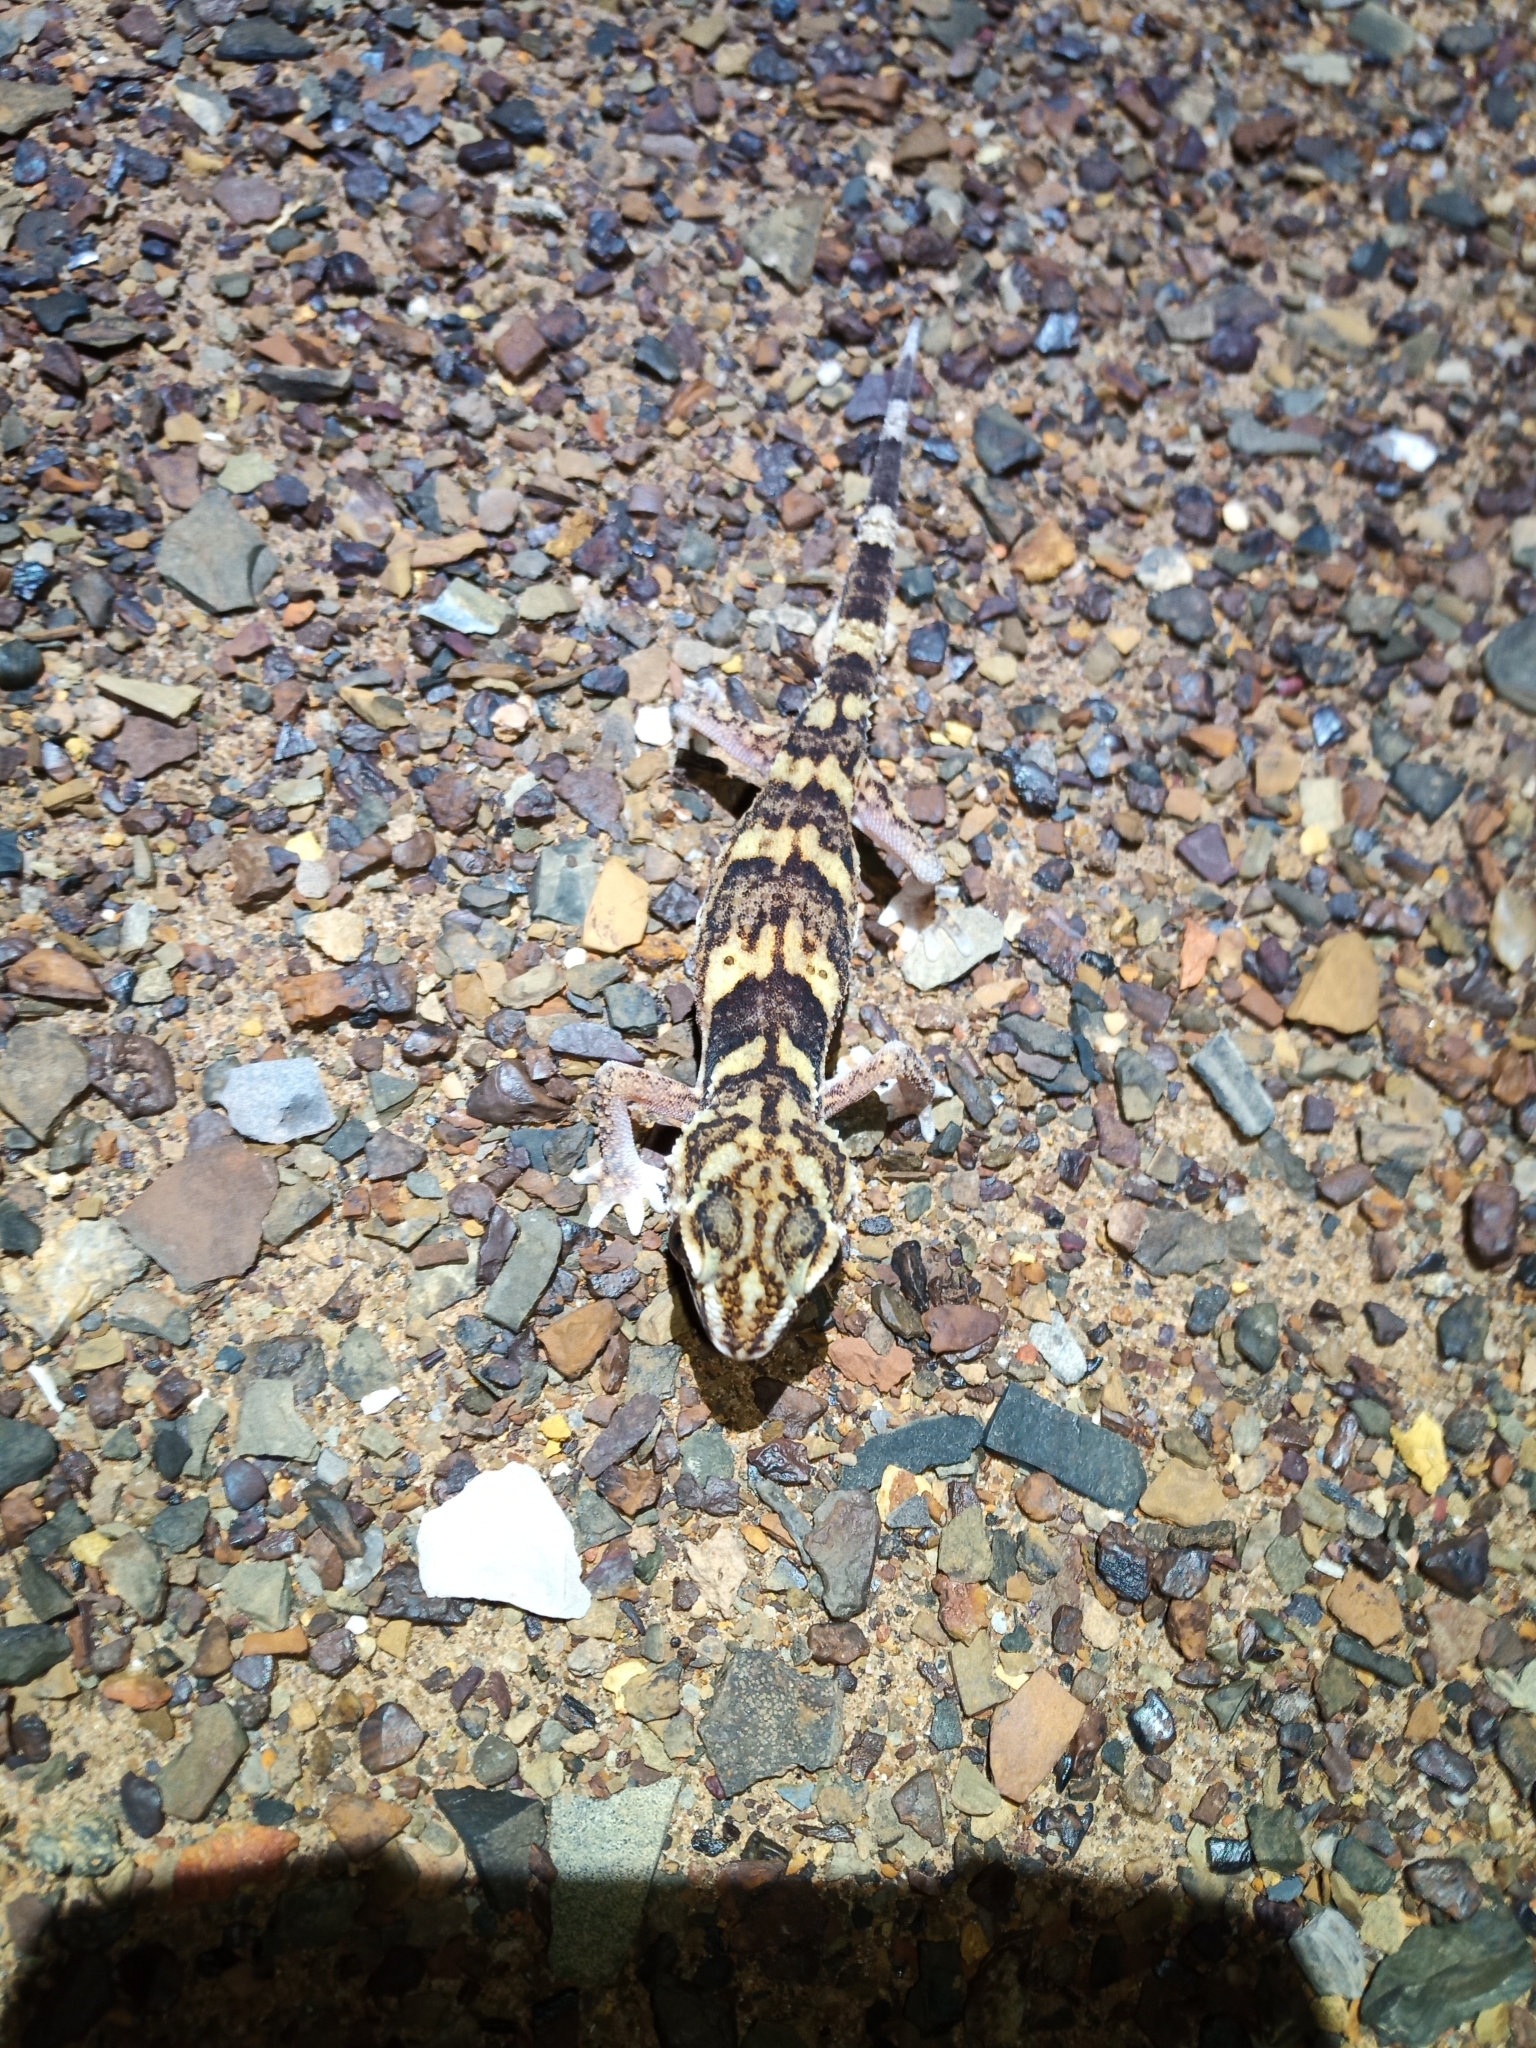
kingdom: Animalia
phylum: Chordata
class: Squamata
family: Gekkonidae
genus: Chondrodactylus
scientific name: Chondrodactylus angulifer
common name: Common giant ground gecko
